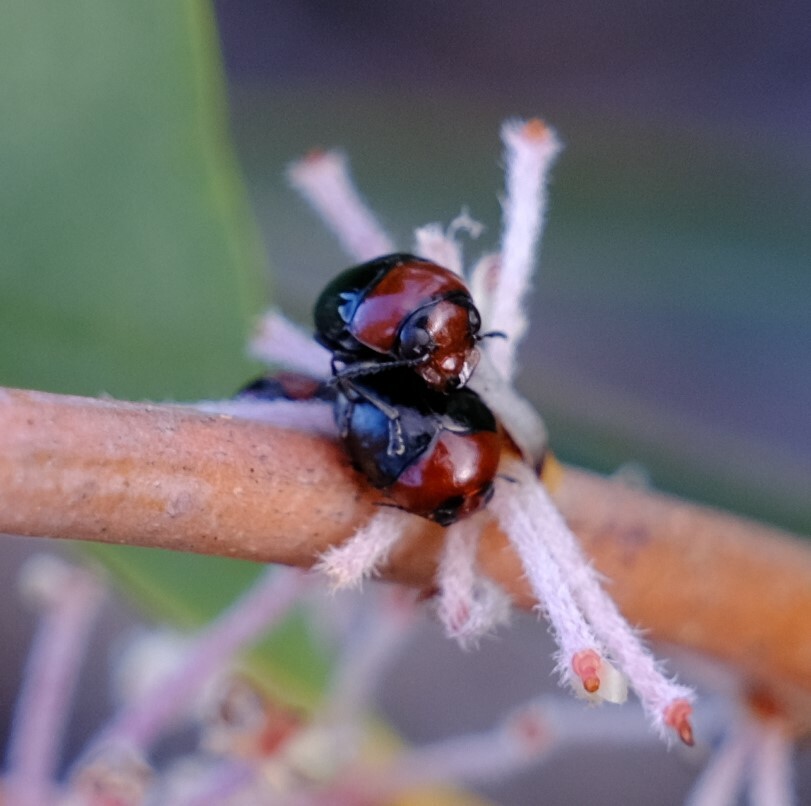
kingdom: Animalia
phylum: Arthropoda
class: Insecta
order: Coleoptera
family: Chrysomelidae
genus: Ditropidus
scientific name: Ditropidus
